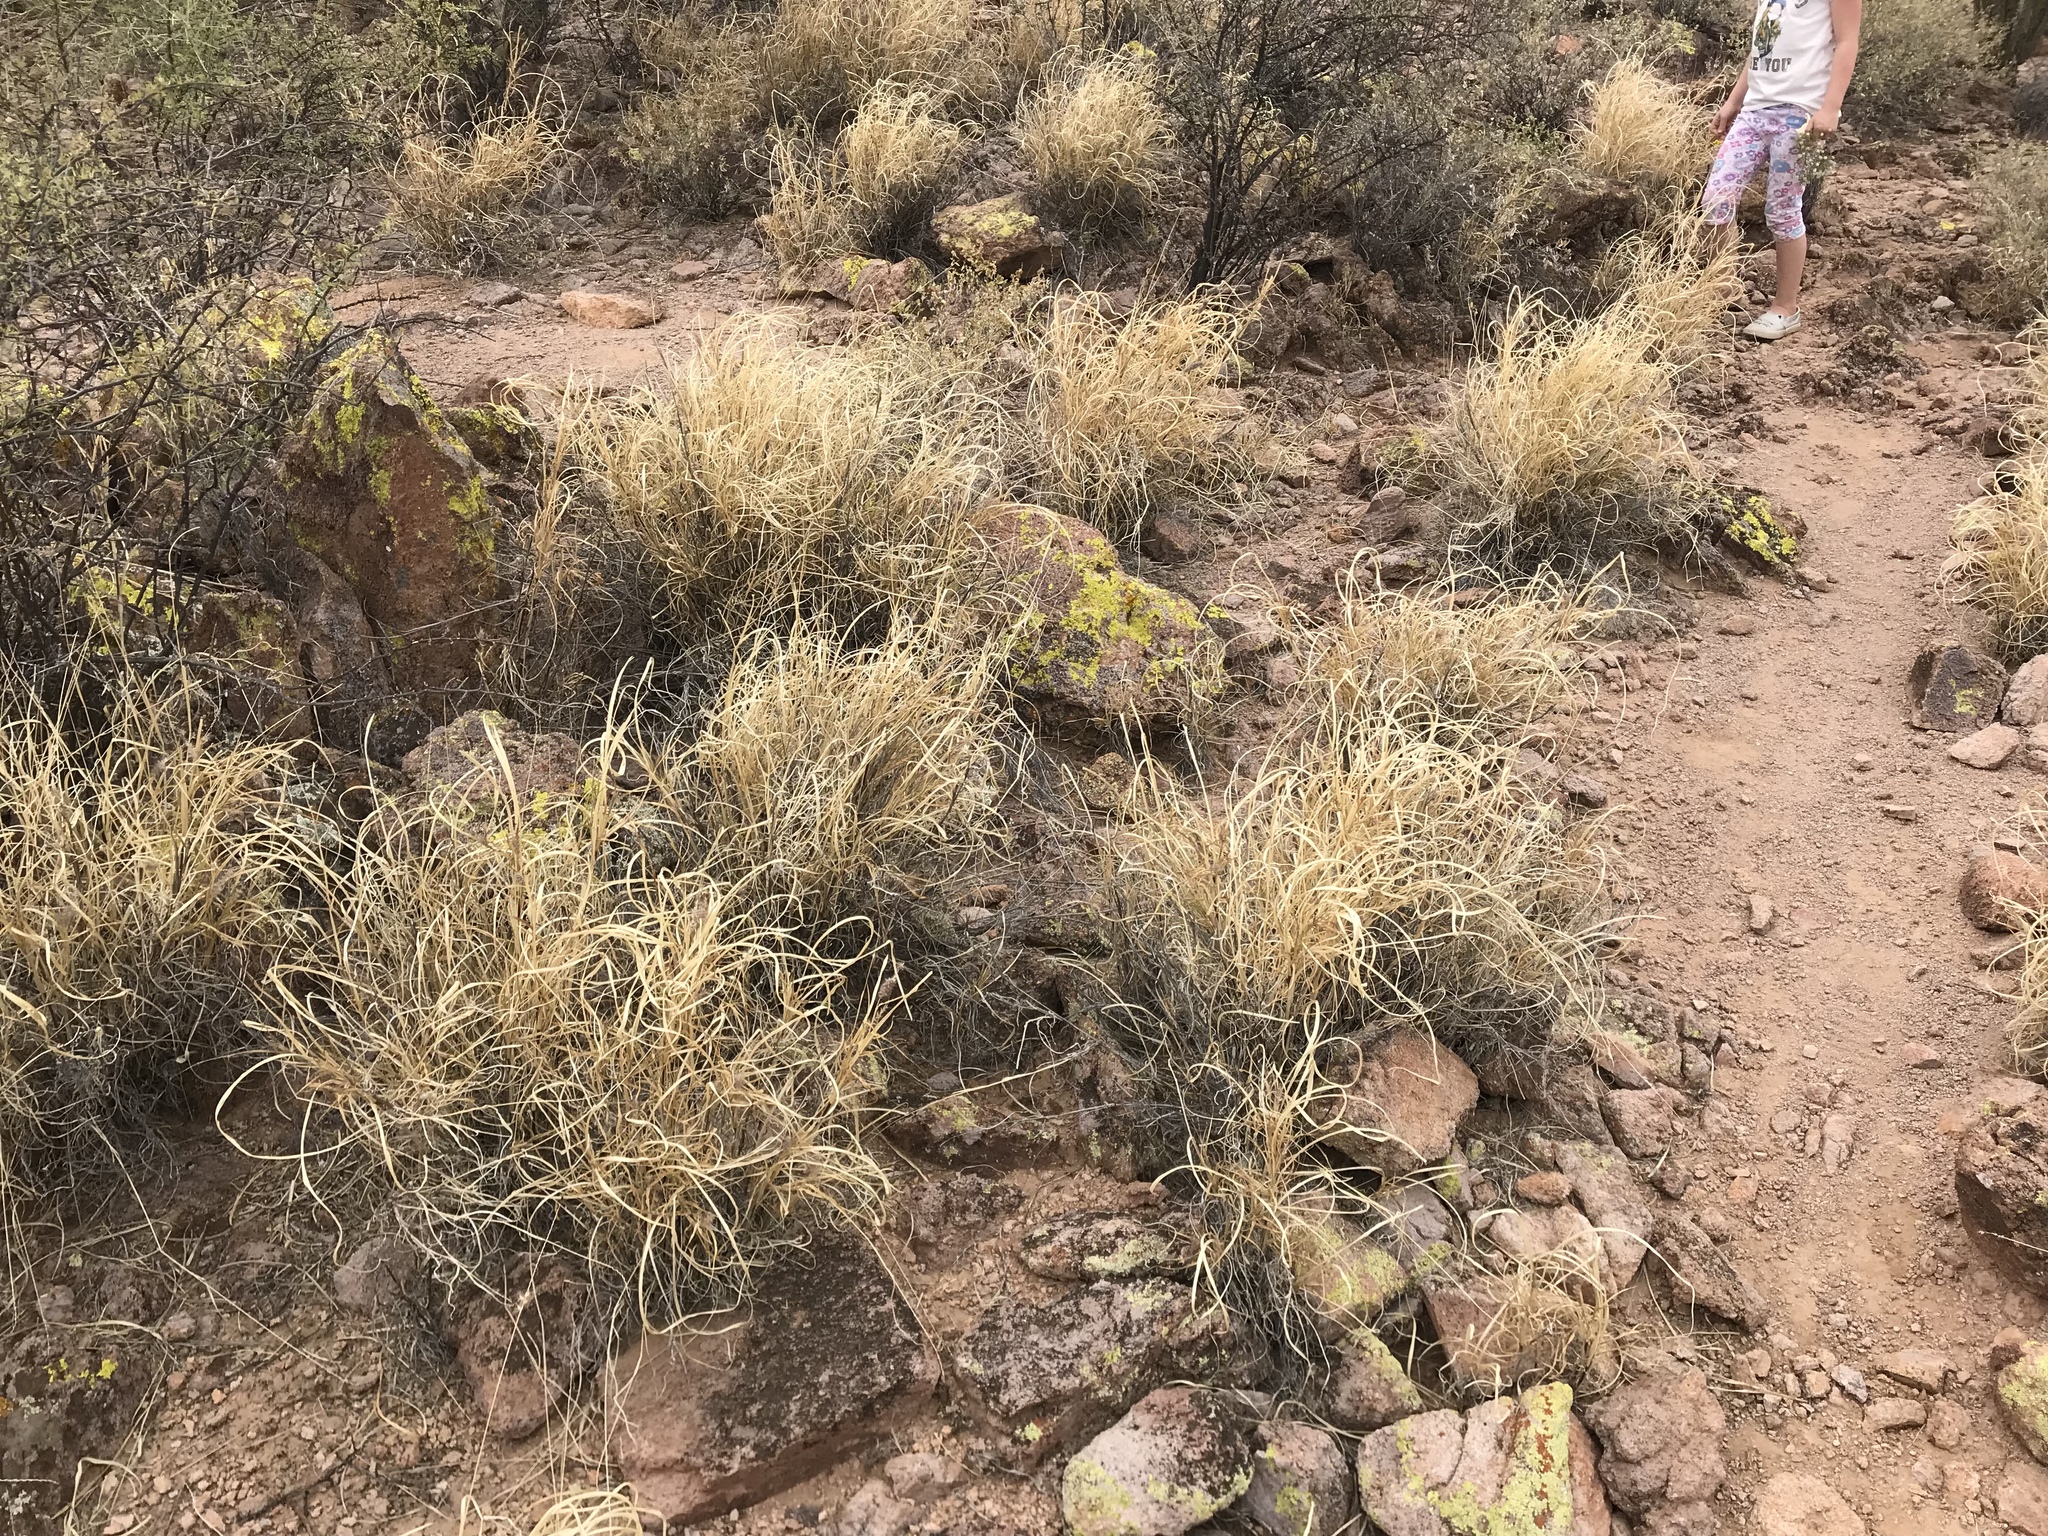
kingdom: Plantae
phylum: Tracheophyta
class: Liliopsida
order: Poales
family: Poaceae
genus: Cenchrus
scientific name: Cenchrus ciliaris
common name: Buffelgrass
